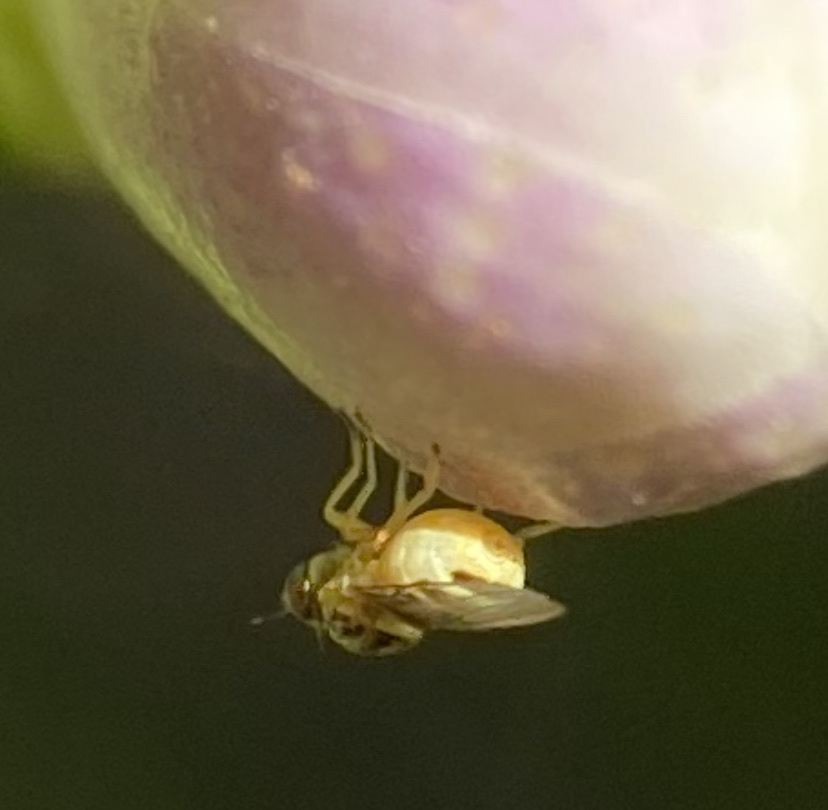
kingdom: Animalia
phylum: Arthropoda
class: Insecta
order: Diptera
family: Chloropidae
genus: Thaumatomyia
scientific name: Thaumatomyia glabra
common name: Chloropid fly
